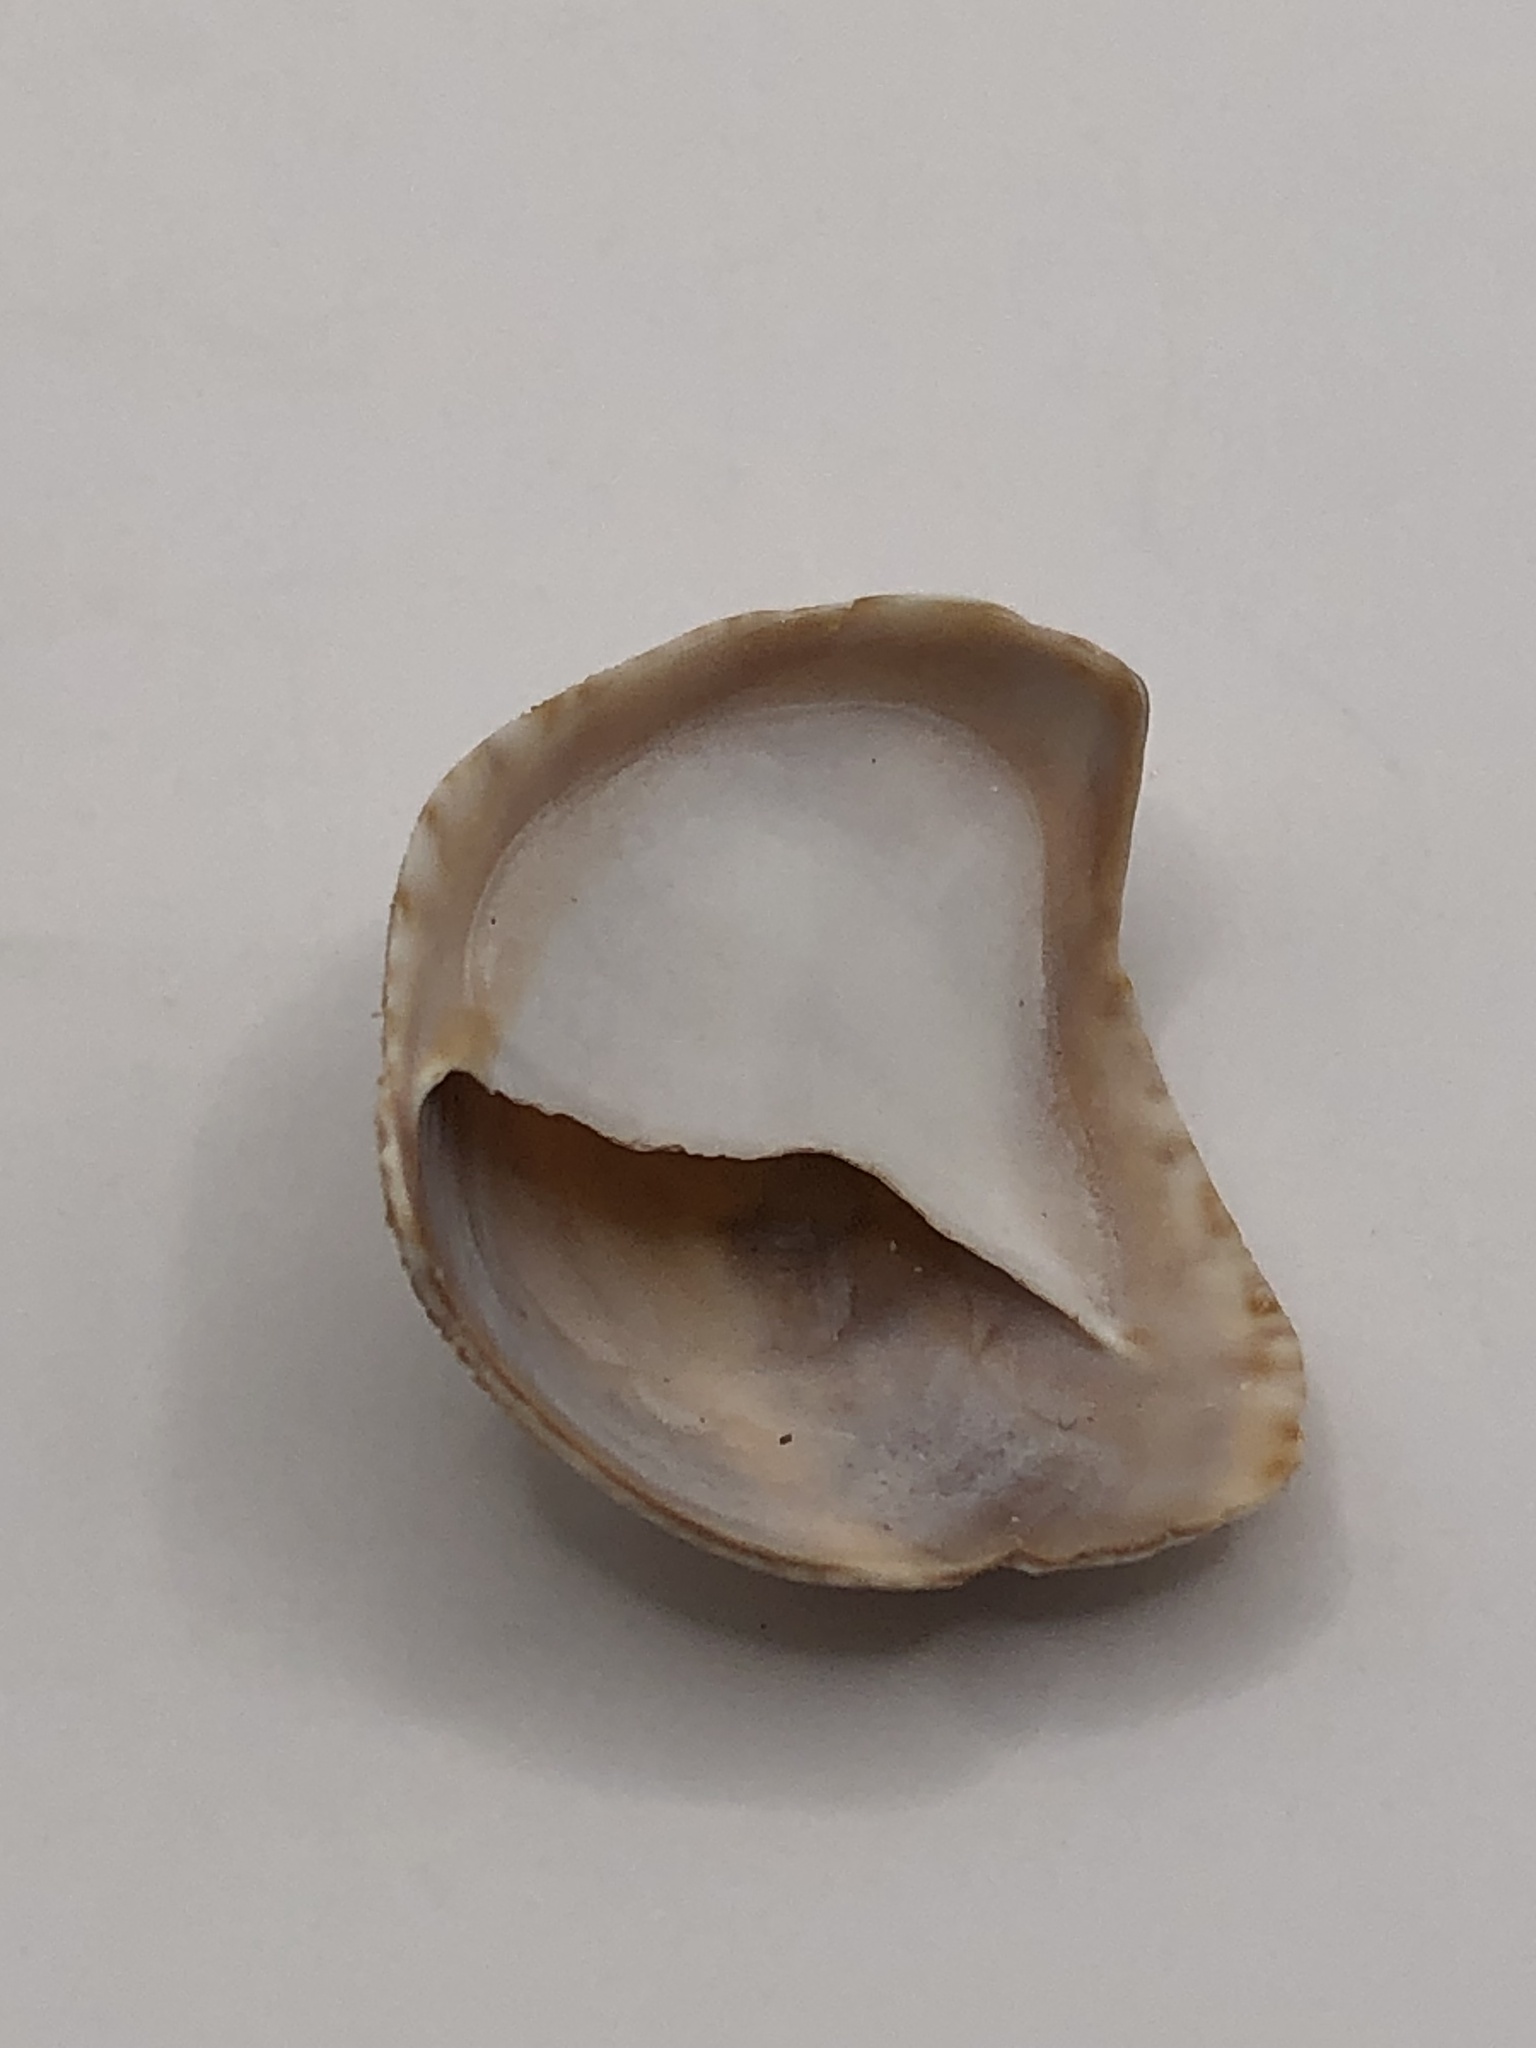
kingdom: Animalia
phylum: Mollusca
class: Gastropoda
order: Littorinimorpha
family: Calyptraeidae
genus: Crepidula
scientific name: Crepidula fornicata
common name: Slipper limpet
